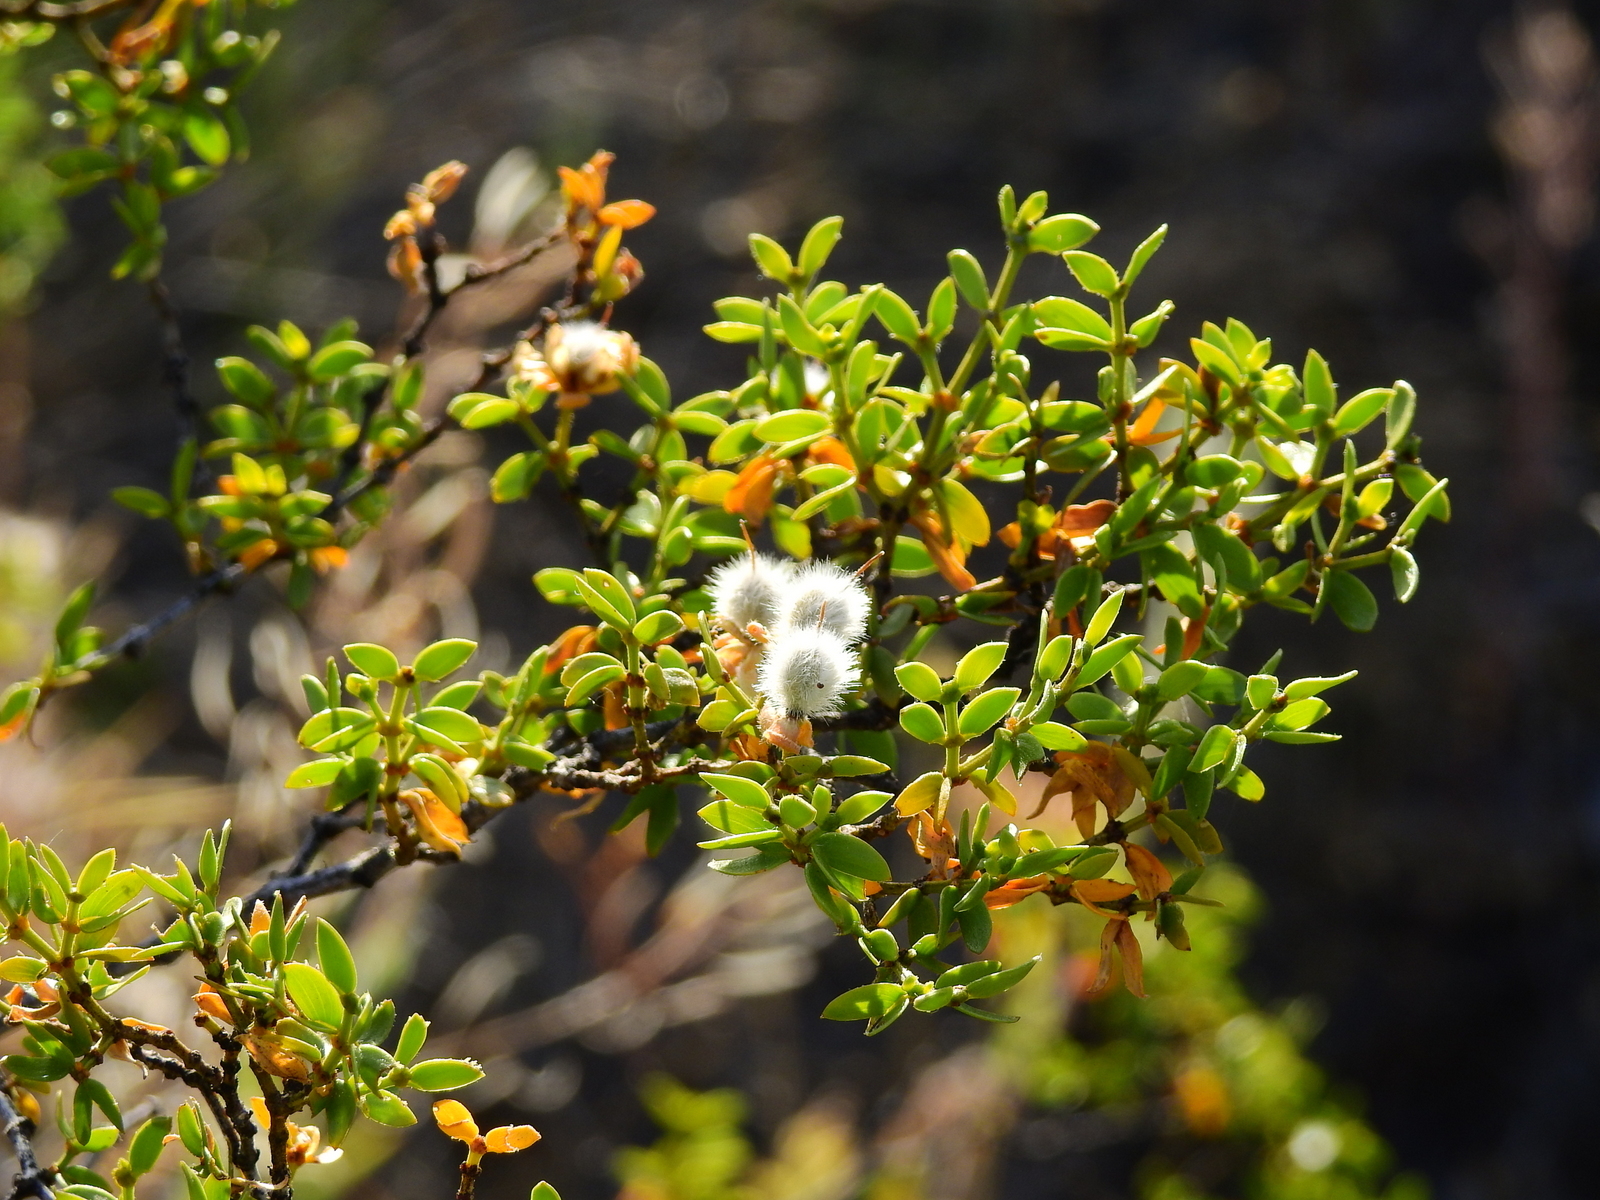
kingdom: Plantae
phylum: Tracheophyta
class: Magnoliopsida
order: Zygophyllales
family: Zygophyllaceae
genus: Larrea
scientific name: Larrea divaricata
